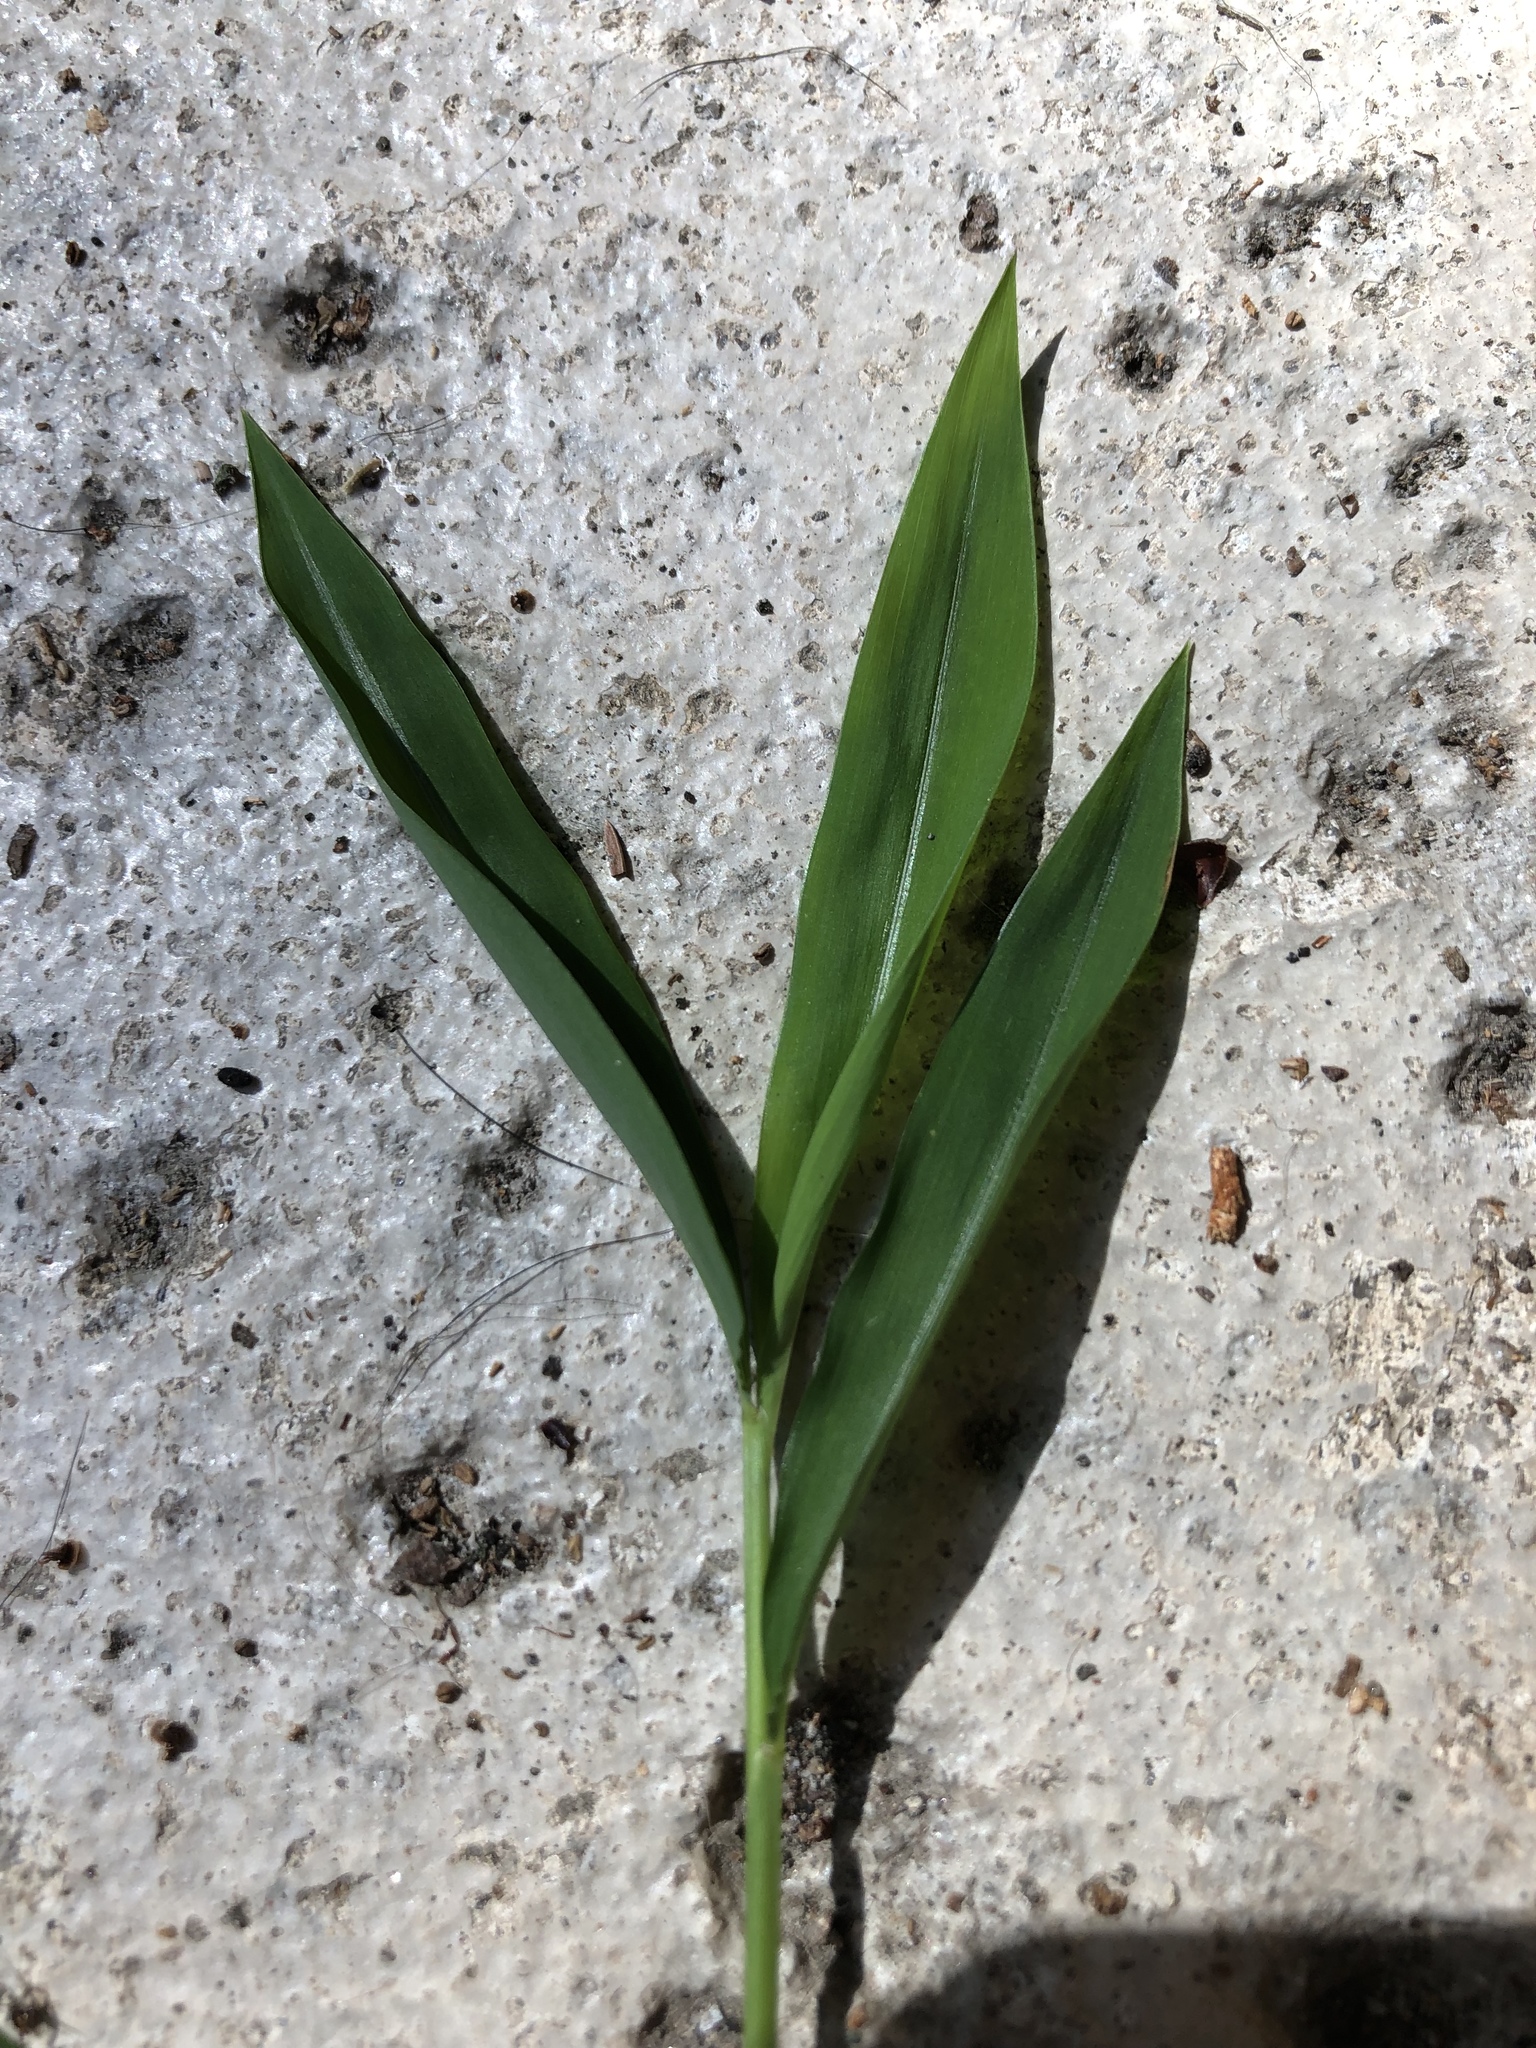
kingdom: Plantae
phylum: Tracheophyta
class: Liliopsida
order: Poales
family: Poaceae
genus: Microstegium
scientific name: Microstegium vimineum
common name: Japanese stiltgrass
